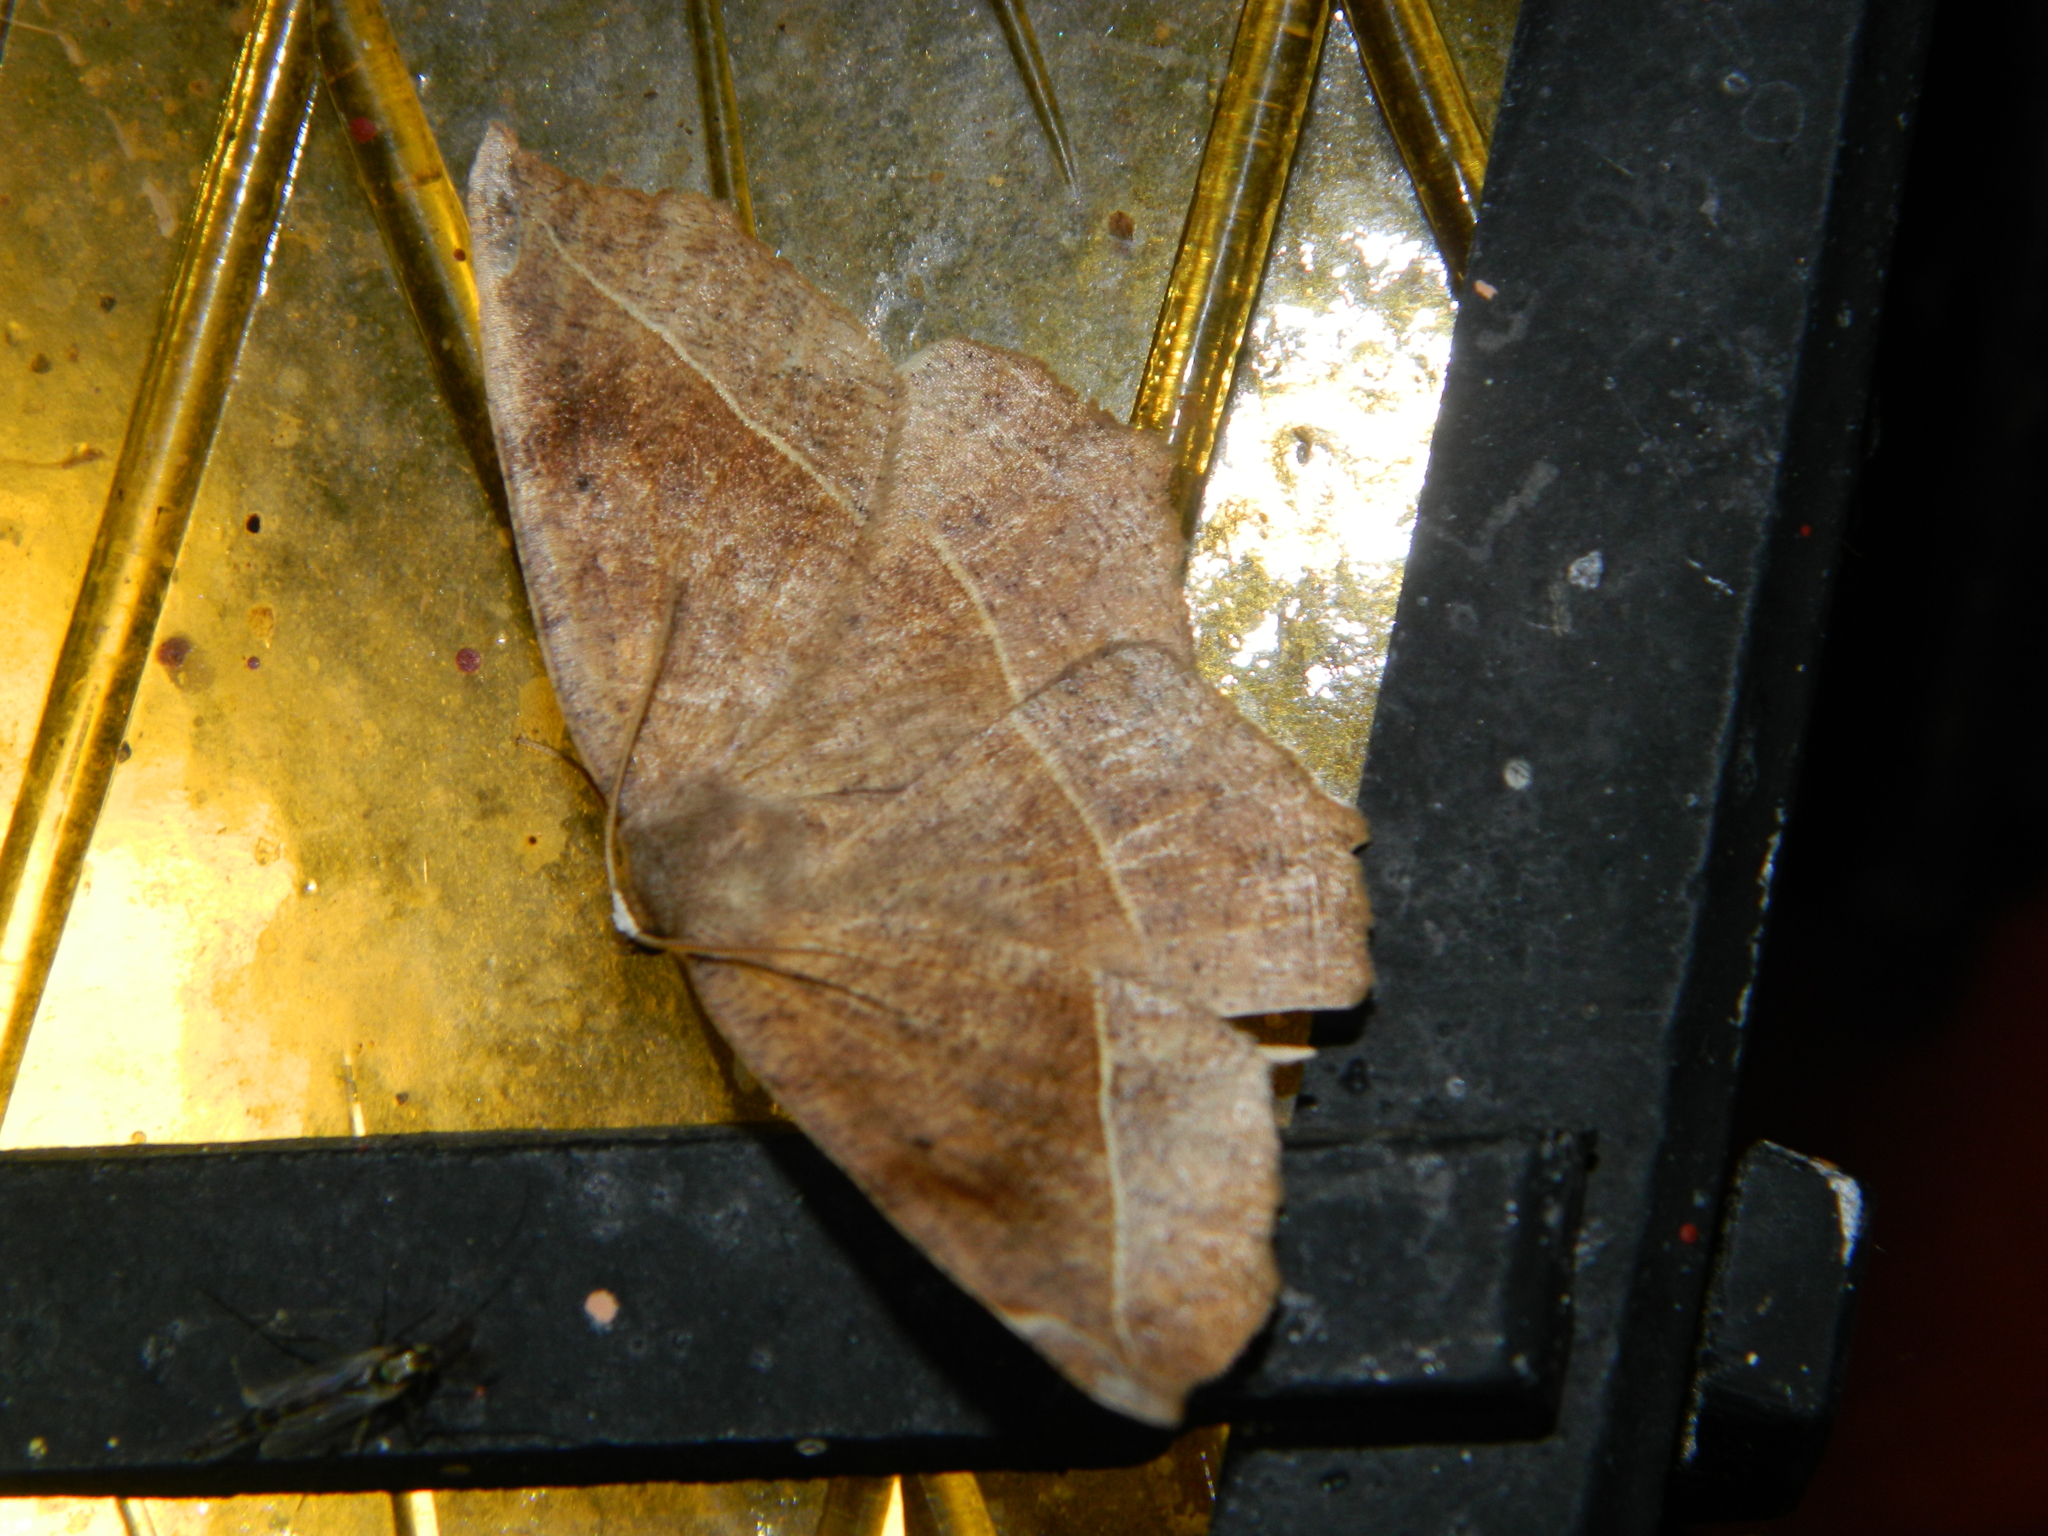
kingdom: Animalia
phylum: Arthropoda
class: Insecta
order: Lepidoptera
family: Geometridae
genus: Eutrapela
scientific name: Eutrapela clemataria
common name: Curved-toothed geometer
